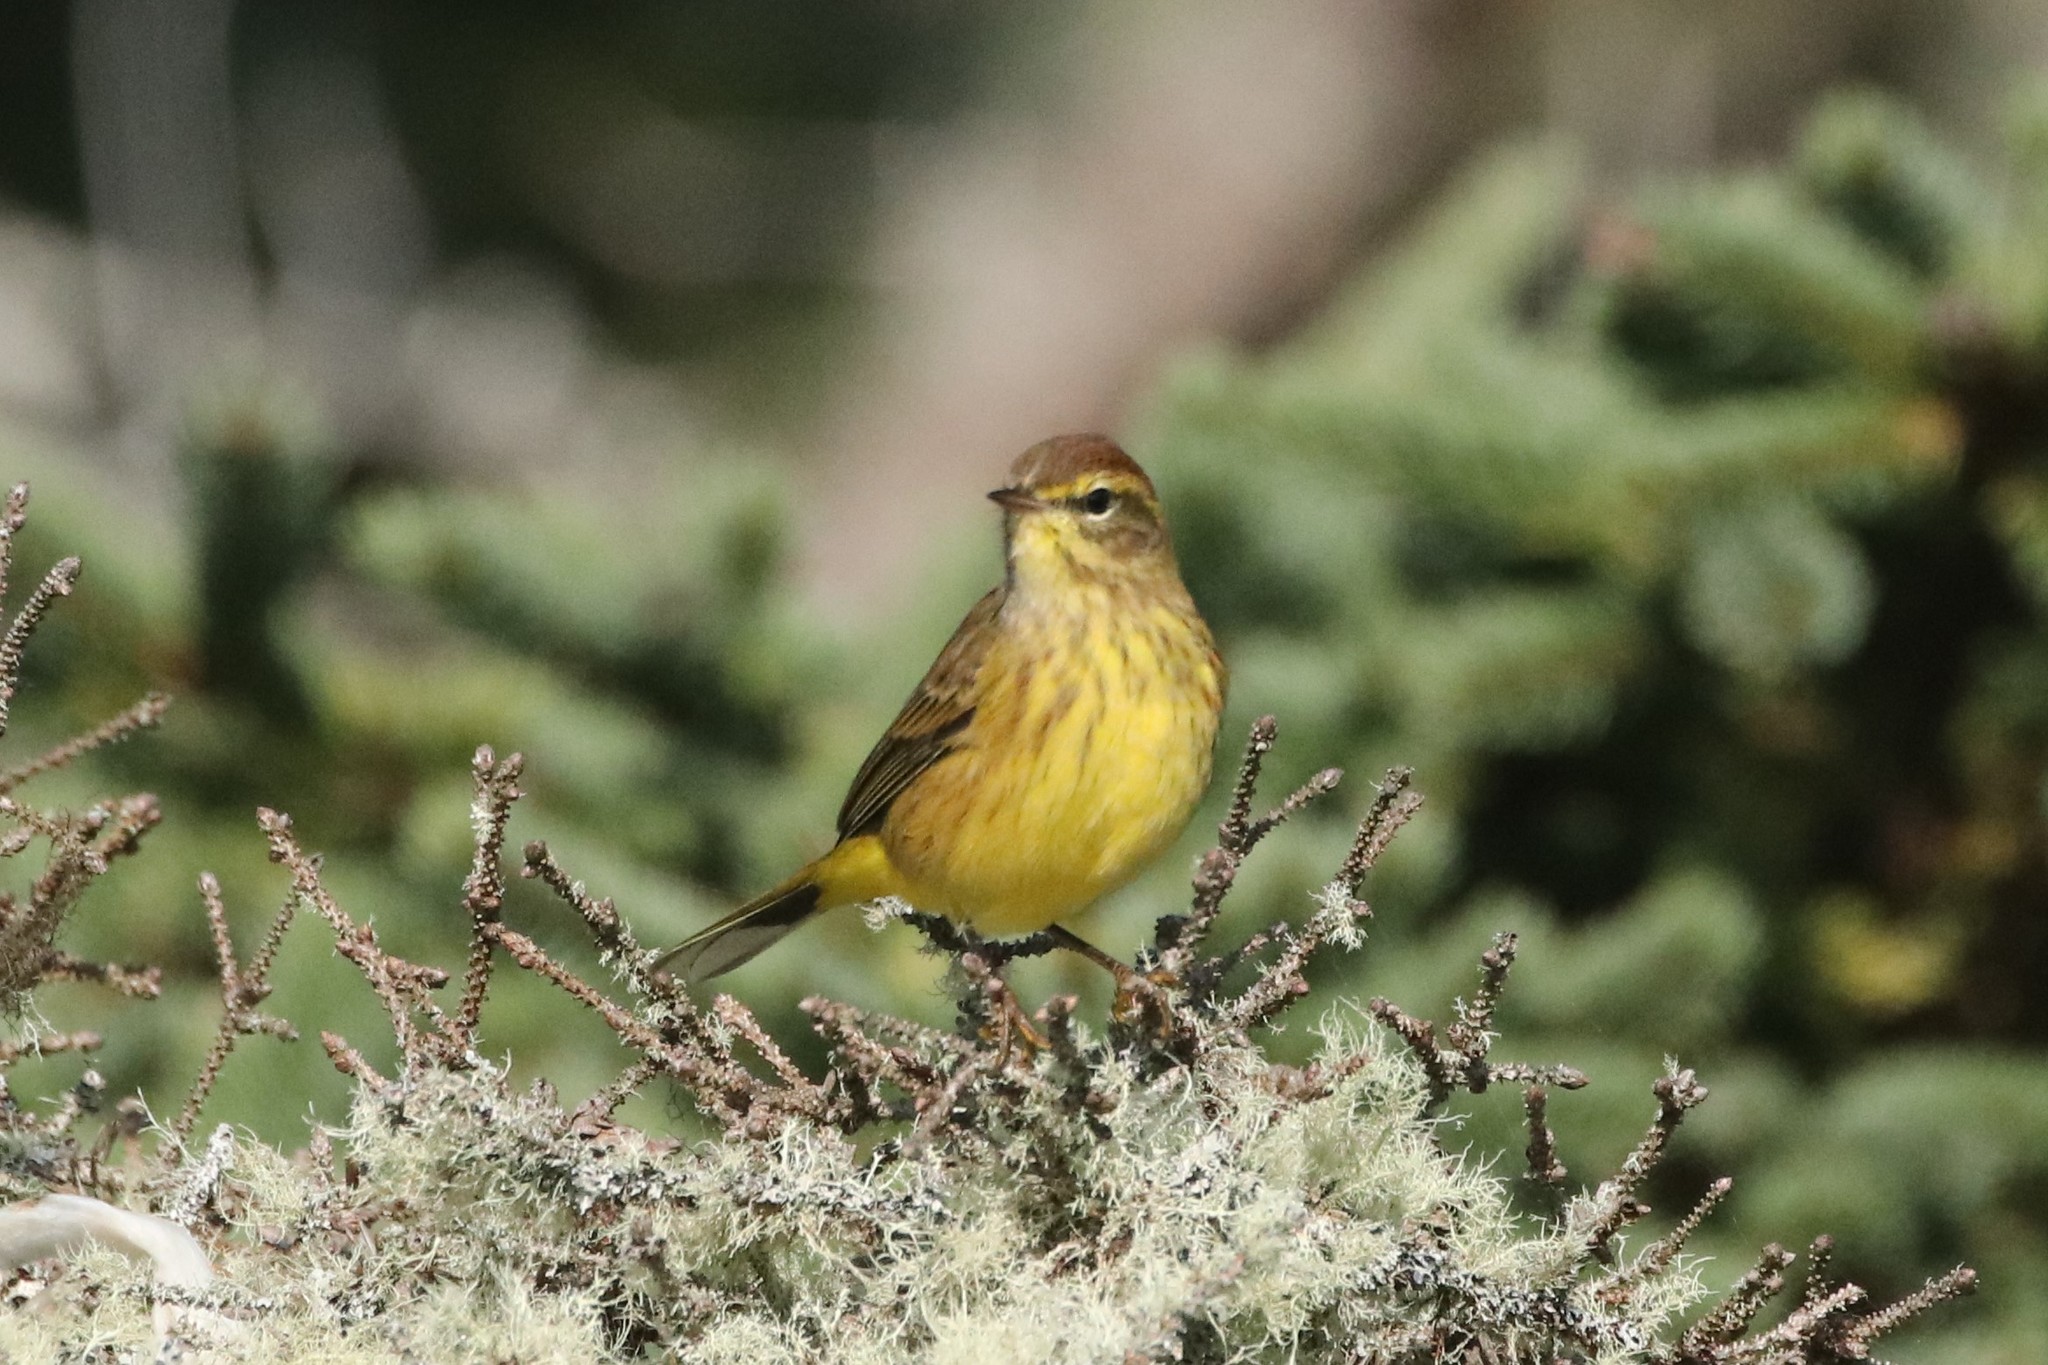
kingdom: Animalia
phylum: Chordata
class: Aves
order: Passeriformes
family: Parulidae
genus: Setophaga
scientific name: Setophaga palmarum
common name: Palm warbler
